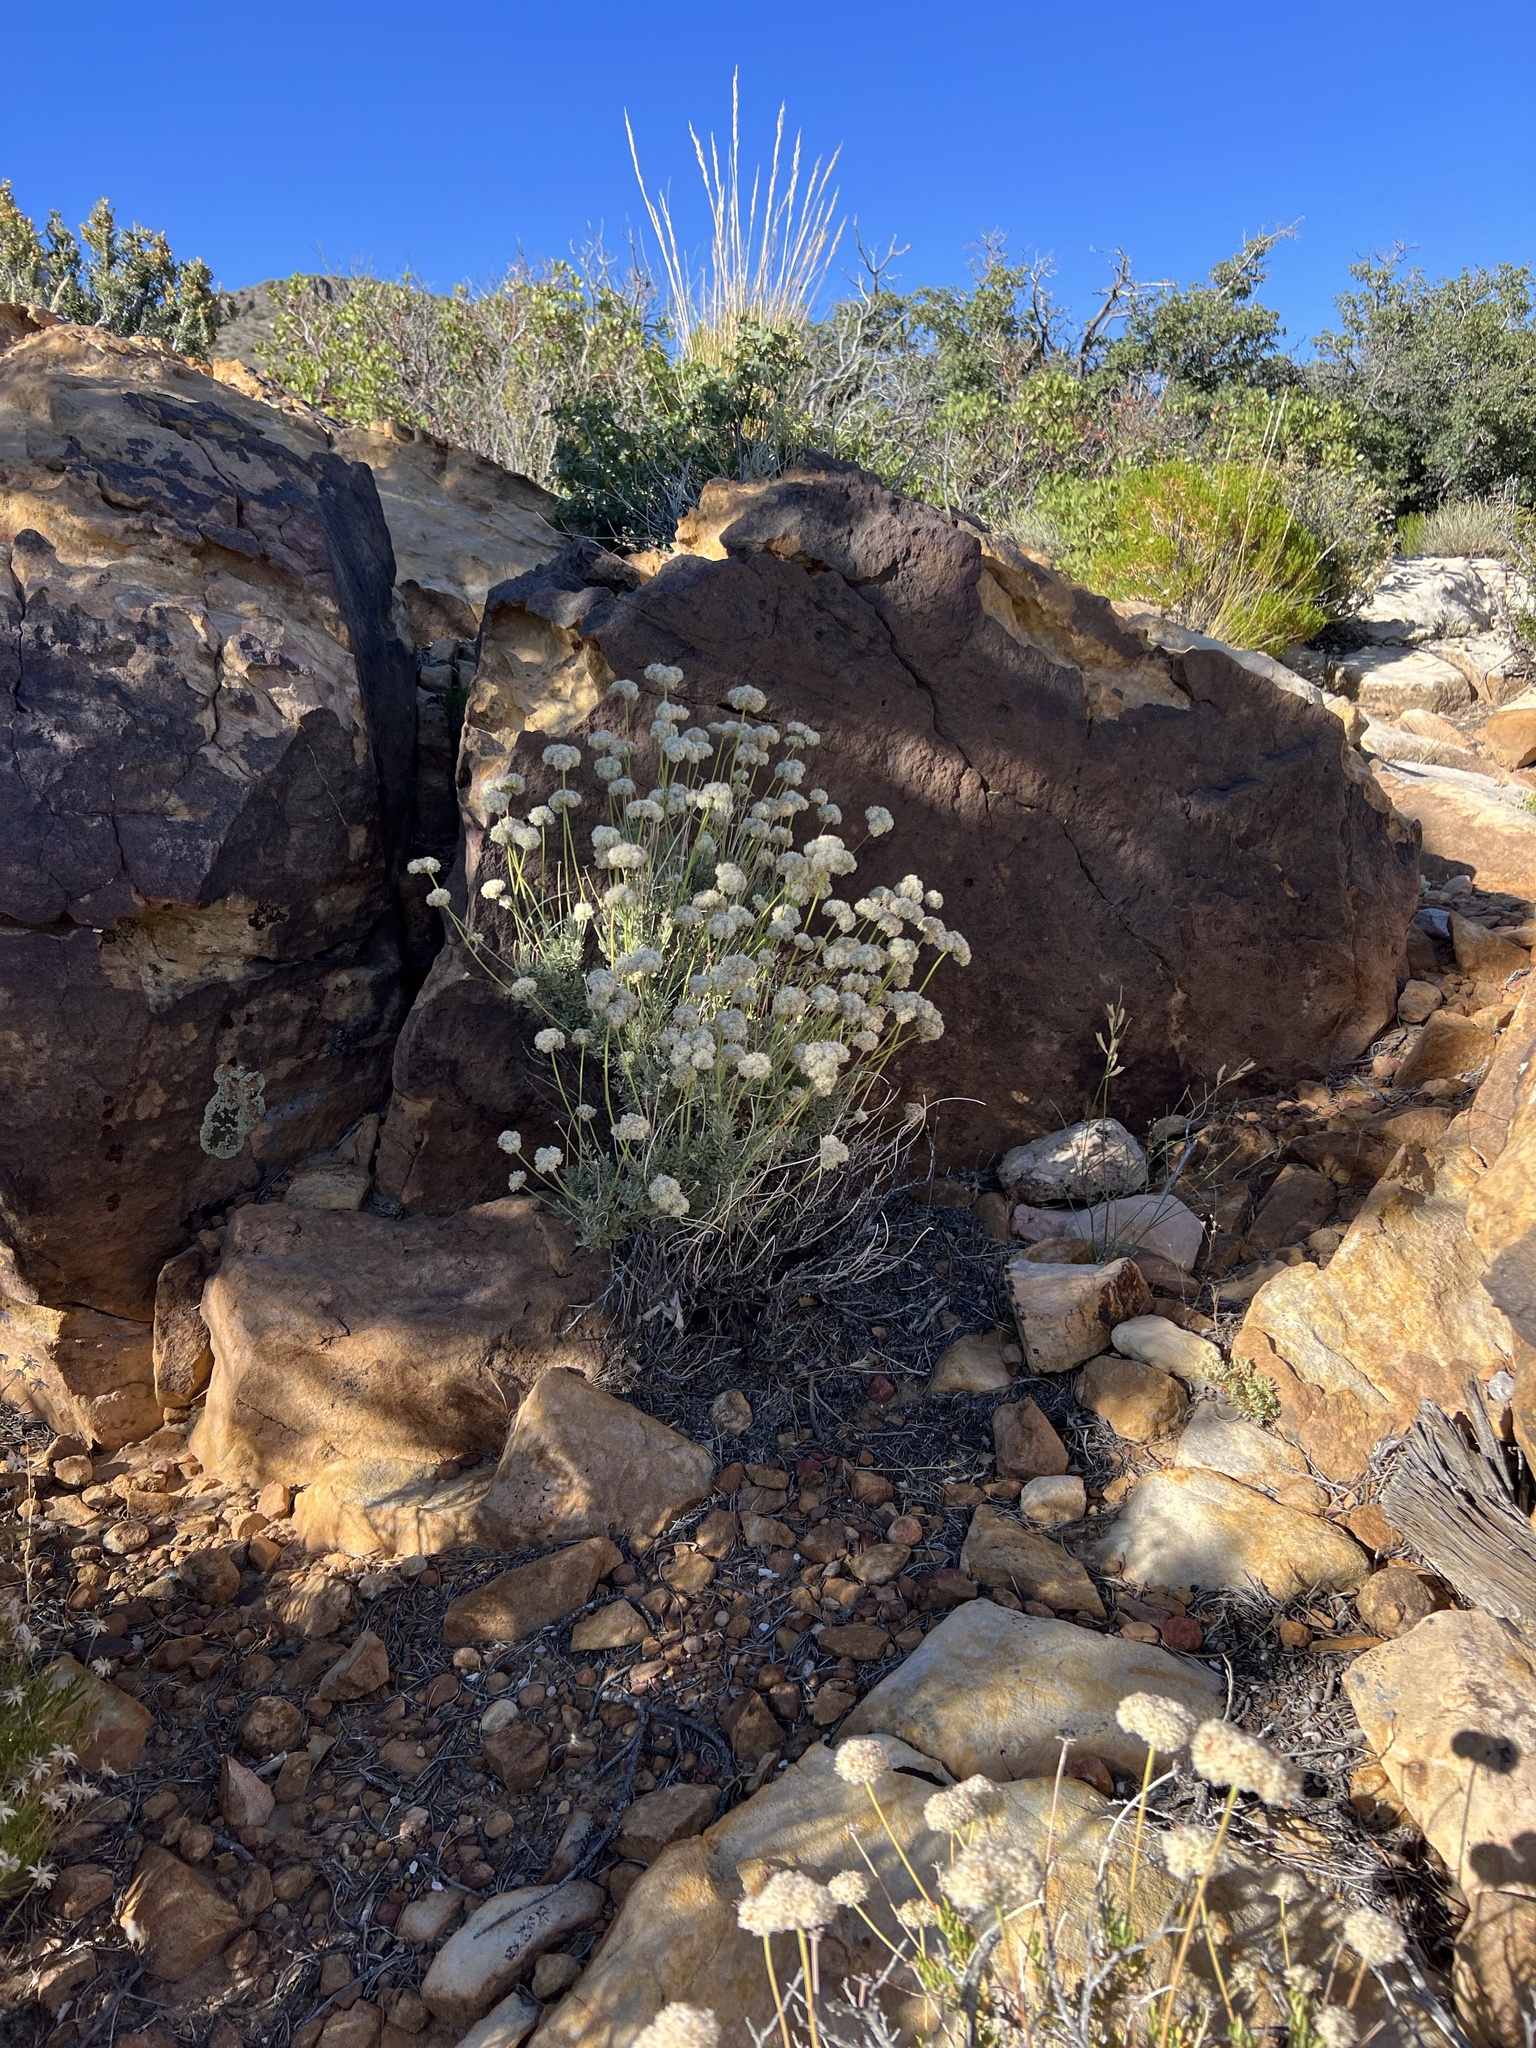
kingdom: Plantae
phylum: Tracheophyta
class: Magnoliopsida
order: Caryophyllales
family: Polygonaceae
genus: Eriogonum
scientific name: Eriogonum fasciculatum
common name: California wild buckwheat
